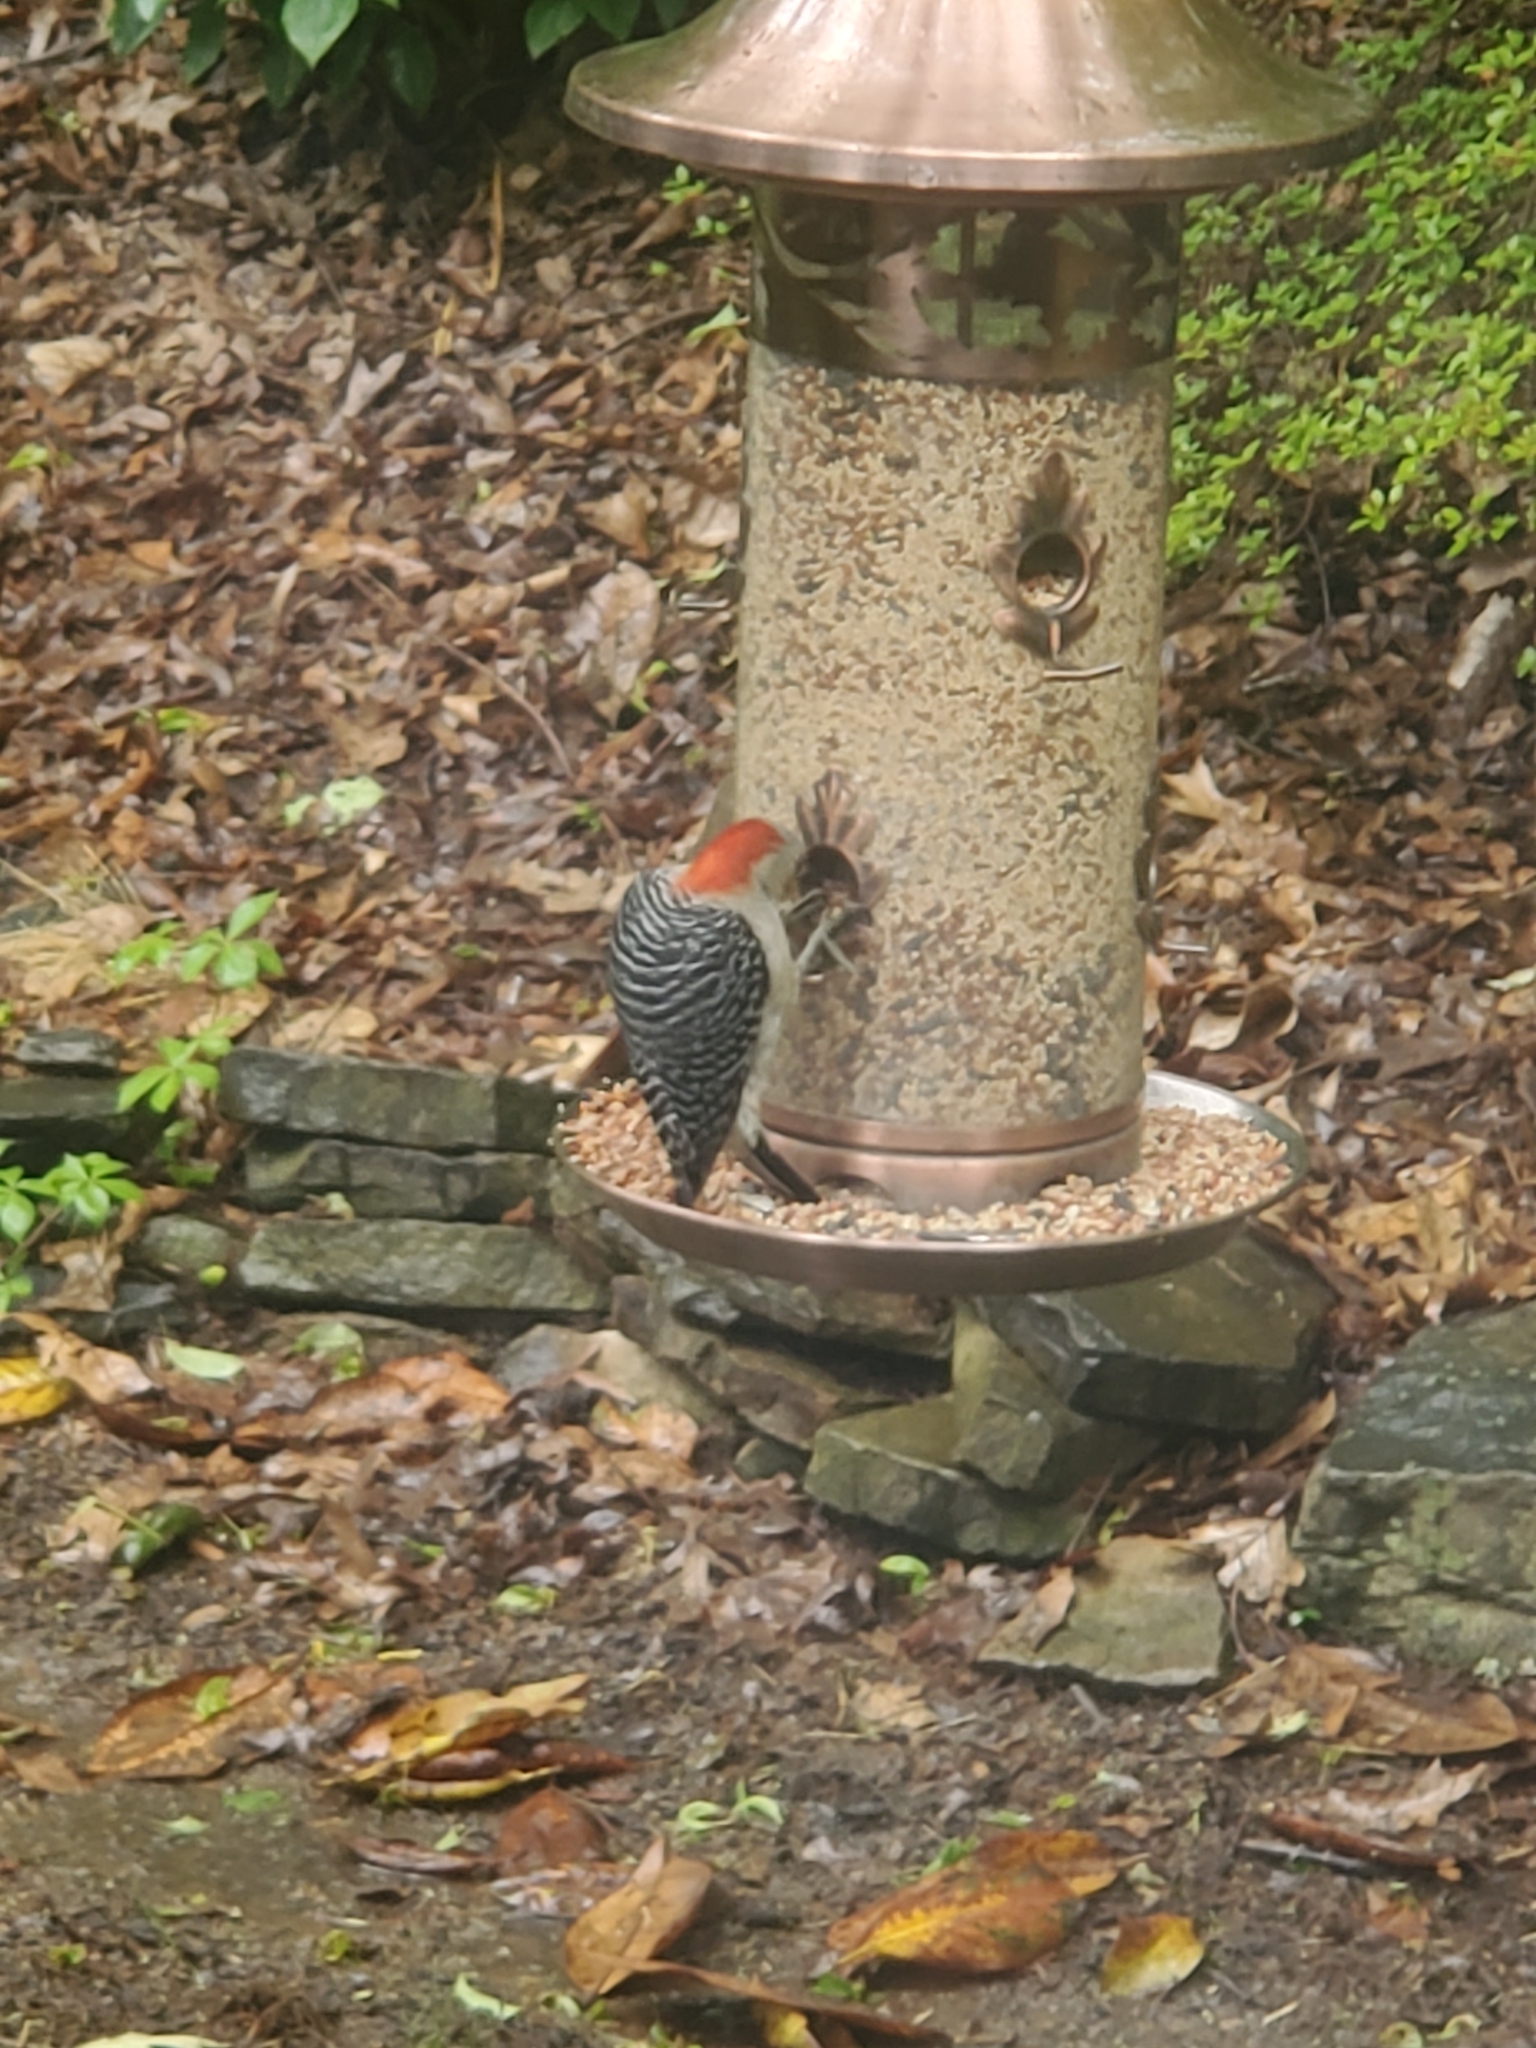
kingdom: Animalia
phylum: Chordata
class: Aves
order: Piciformes
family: Picidae
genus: Melanerpes
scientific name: Melanerpes carolinus
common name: Red-bellied woodpecker
